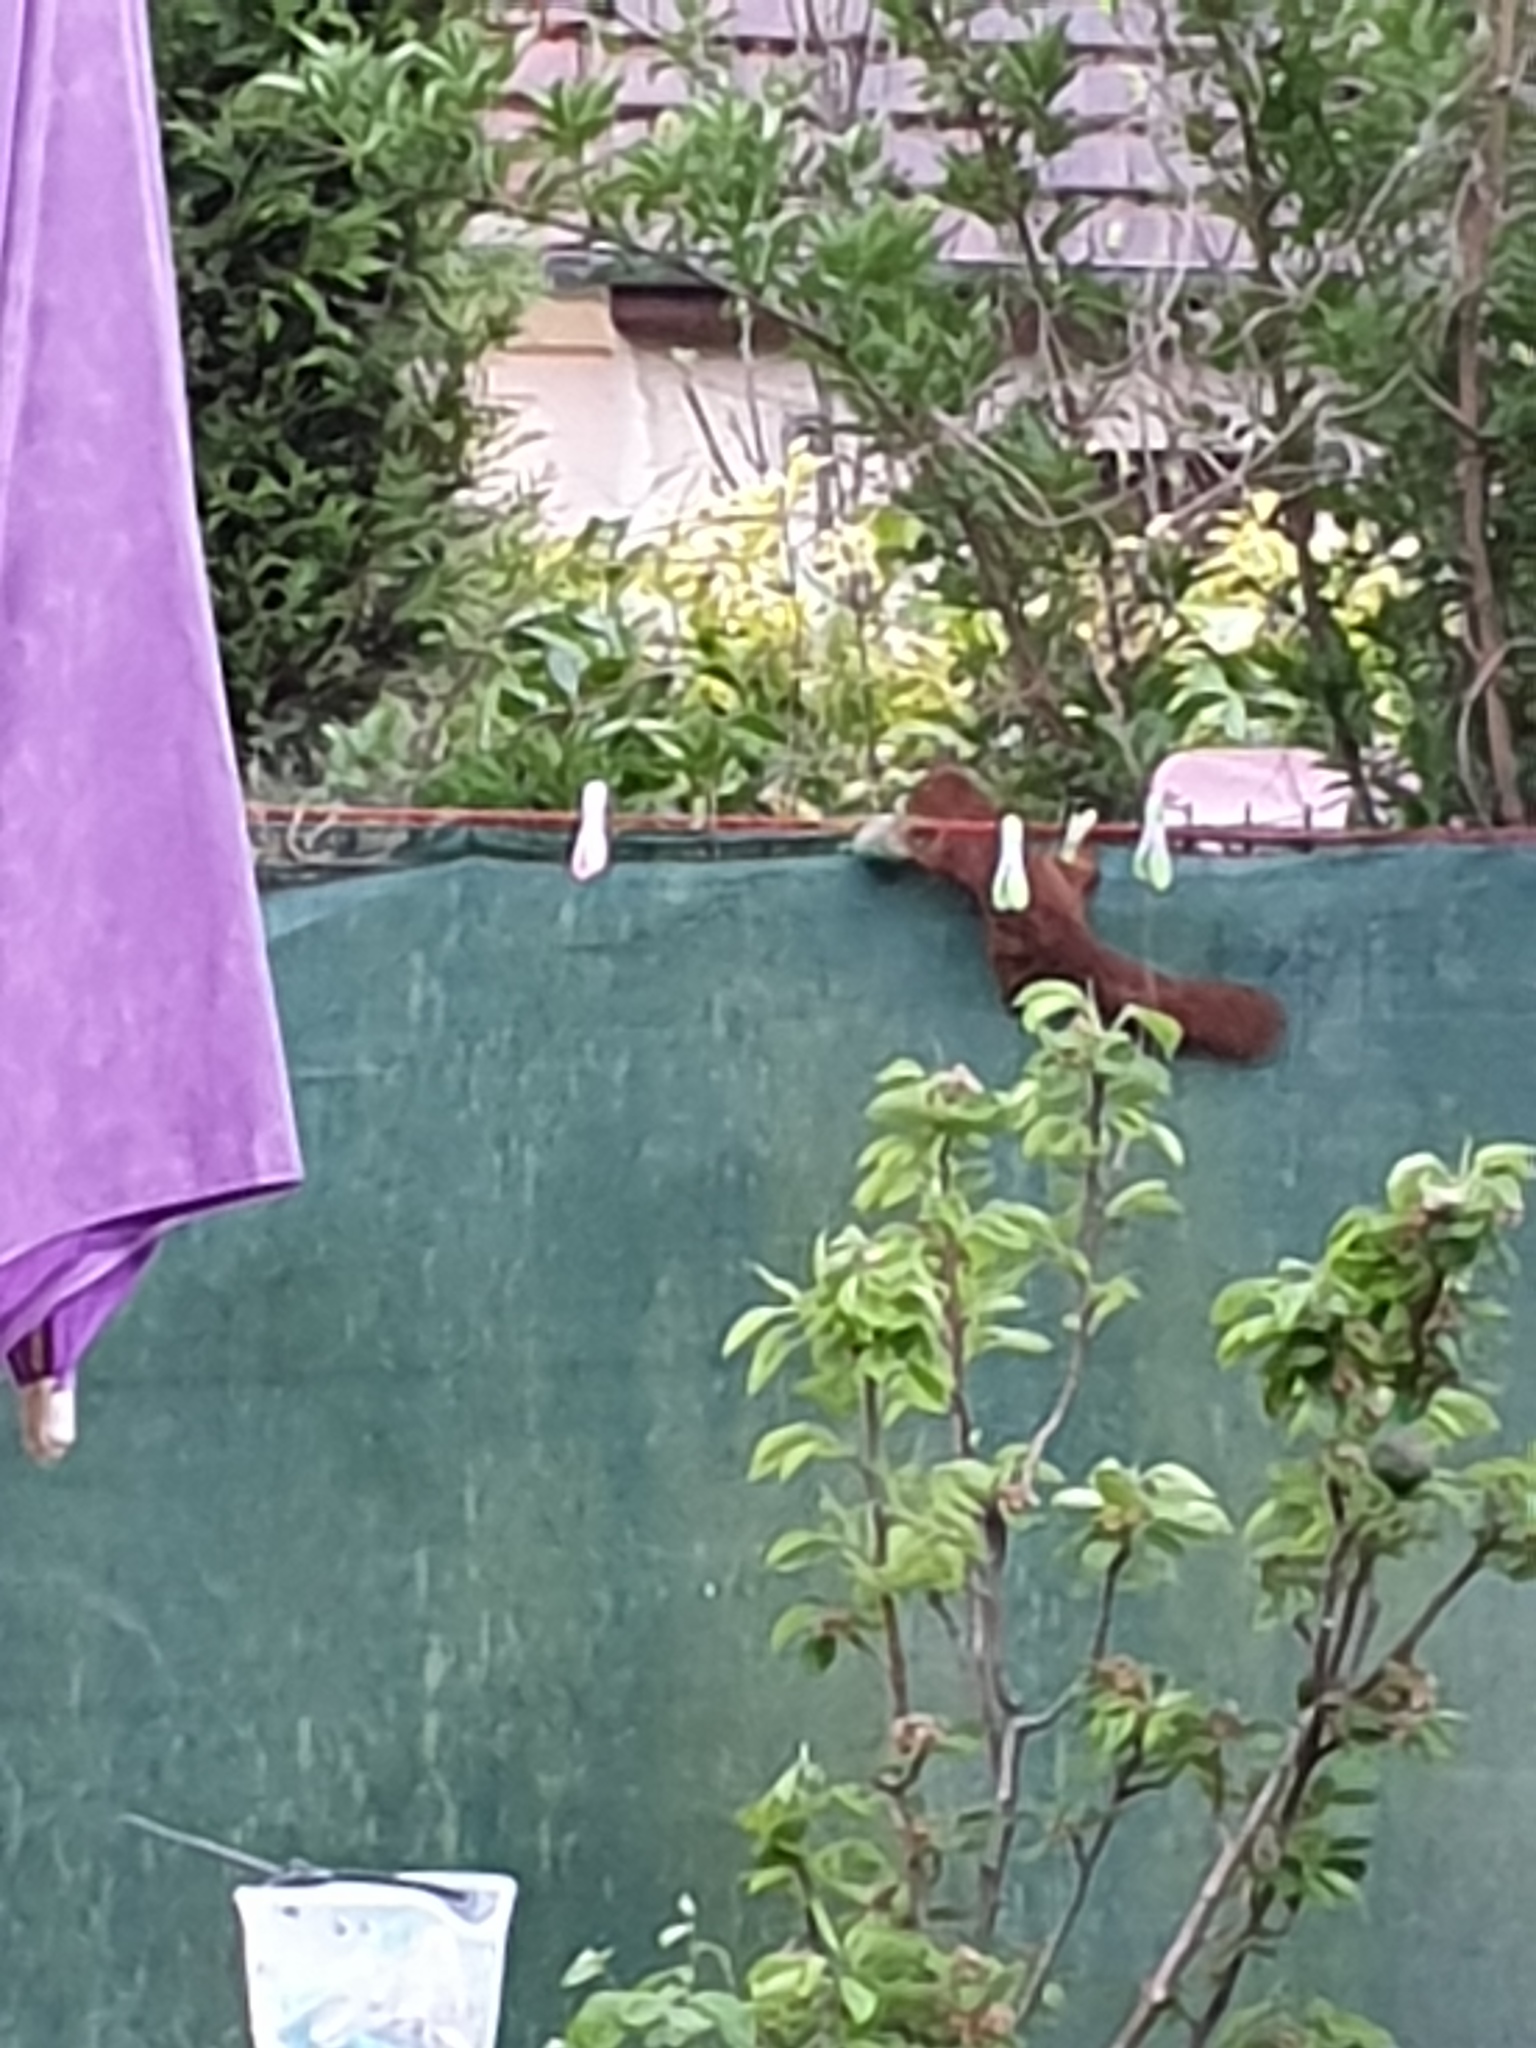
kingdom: Animalia
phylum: Chordata
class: Mammalia
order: Rodentia
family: Sciuridae
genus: Sciurus
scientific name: Sciurus vulgaris
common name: Eurasian red squirrel
